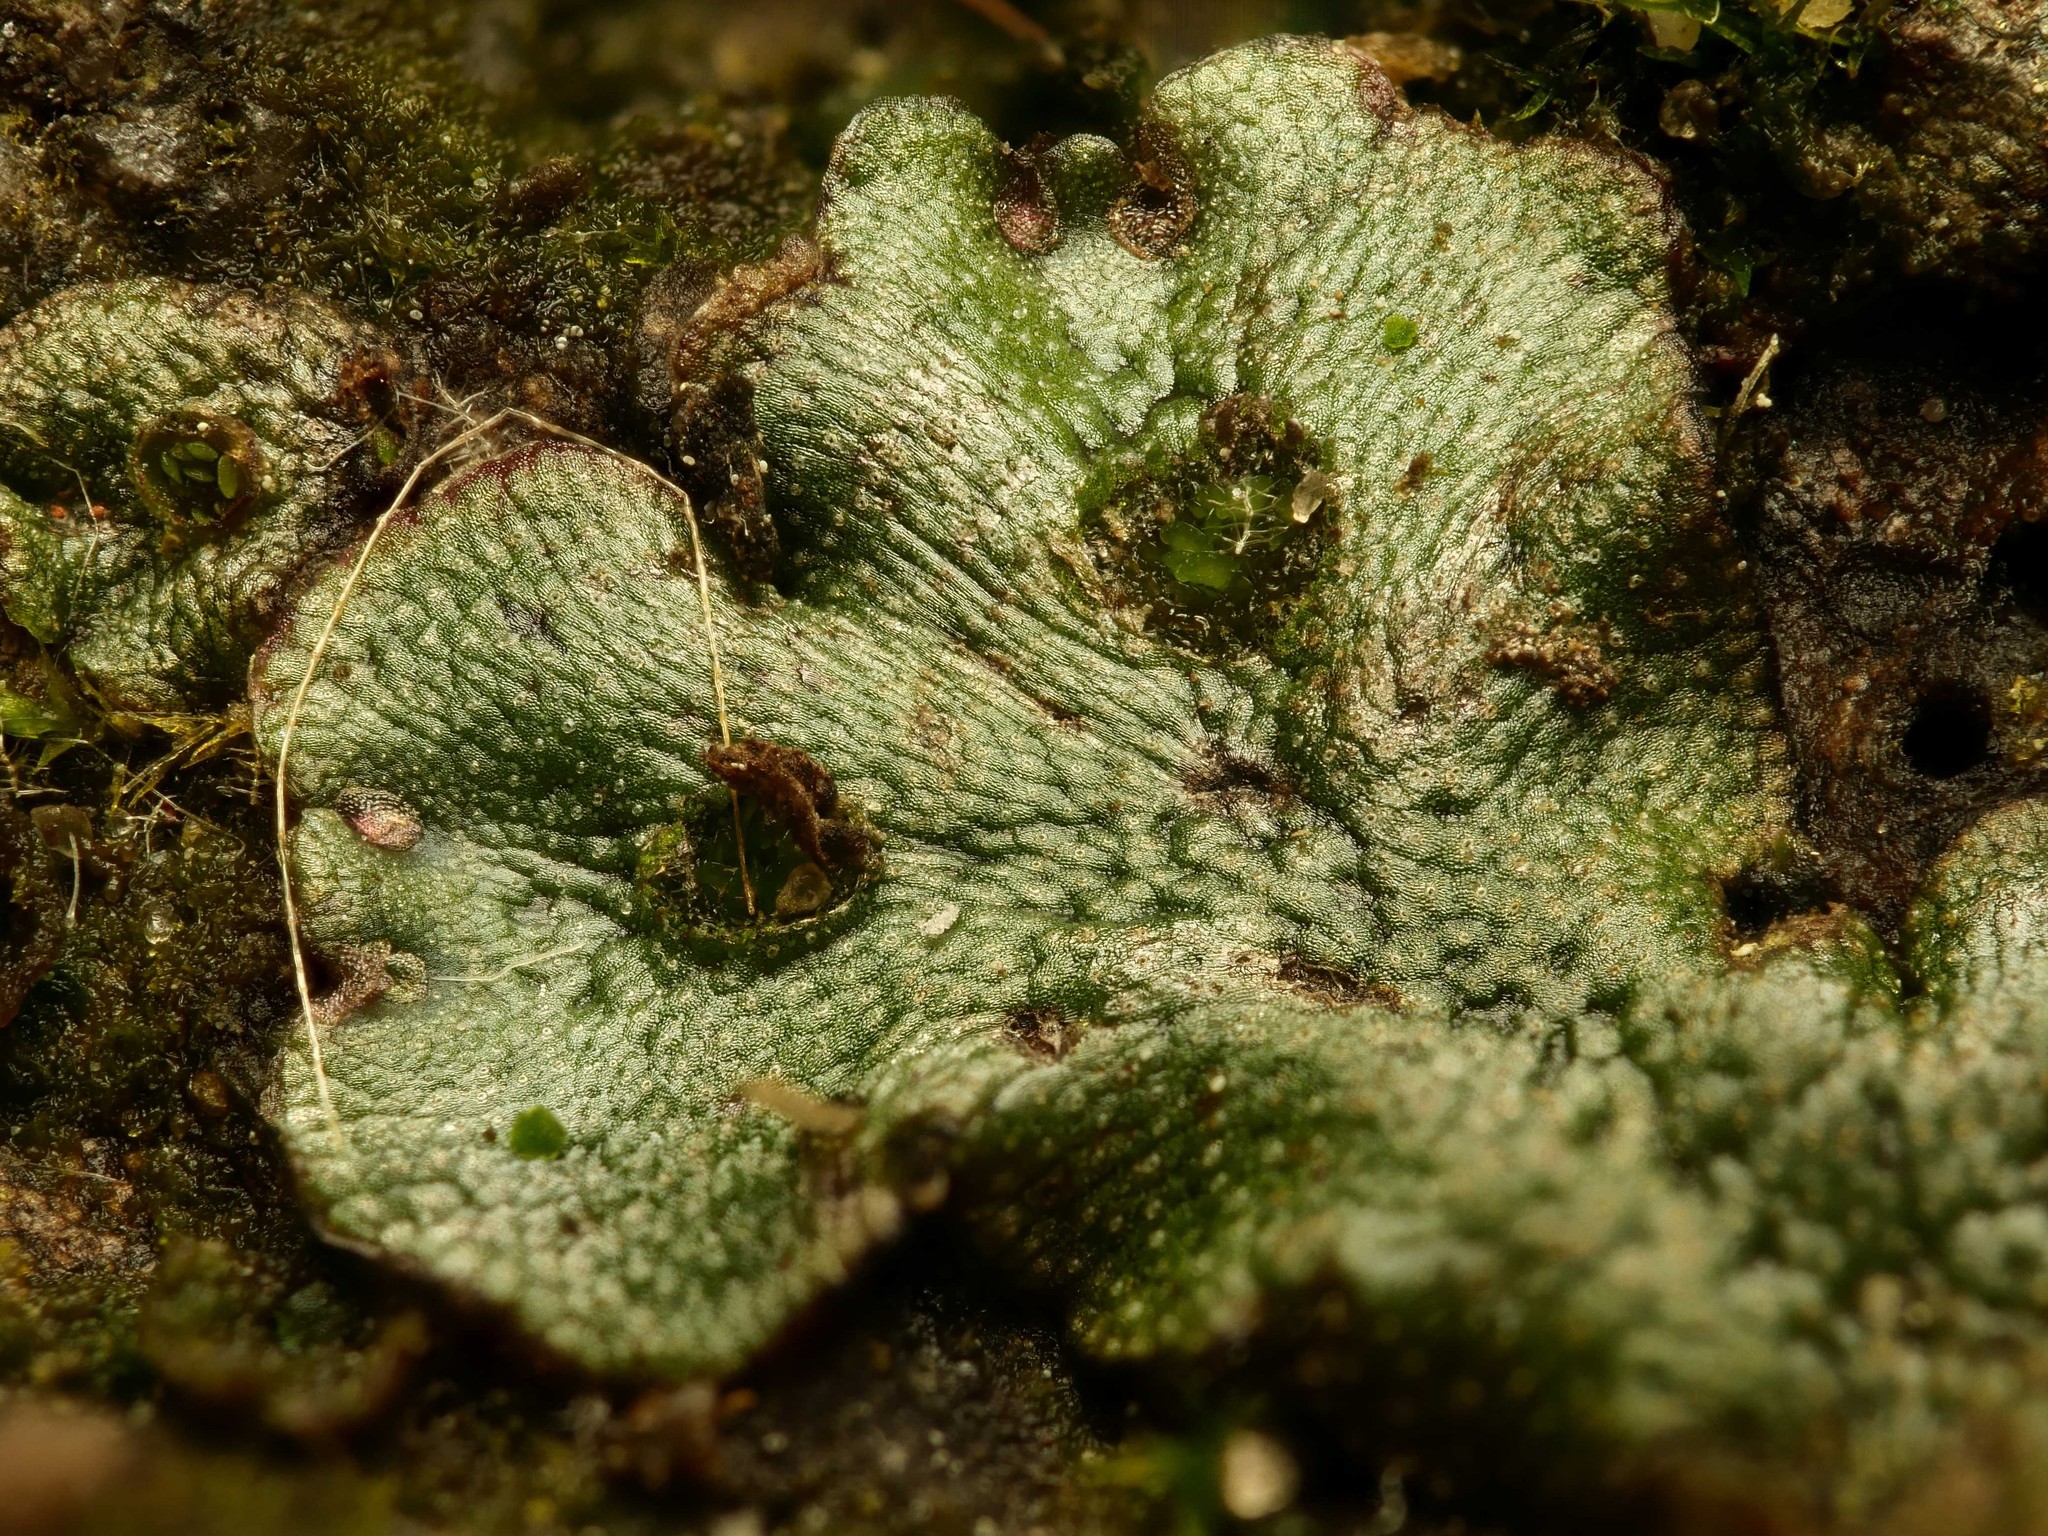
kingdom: Plantae
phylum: Marchantiophyta
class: Marchantiopsida
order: Marchantiales
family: Marchantiaceae
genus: Marchantia
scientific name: Marchantia polymorpha
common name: Common liverwort
